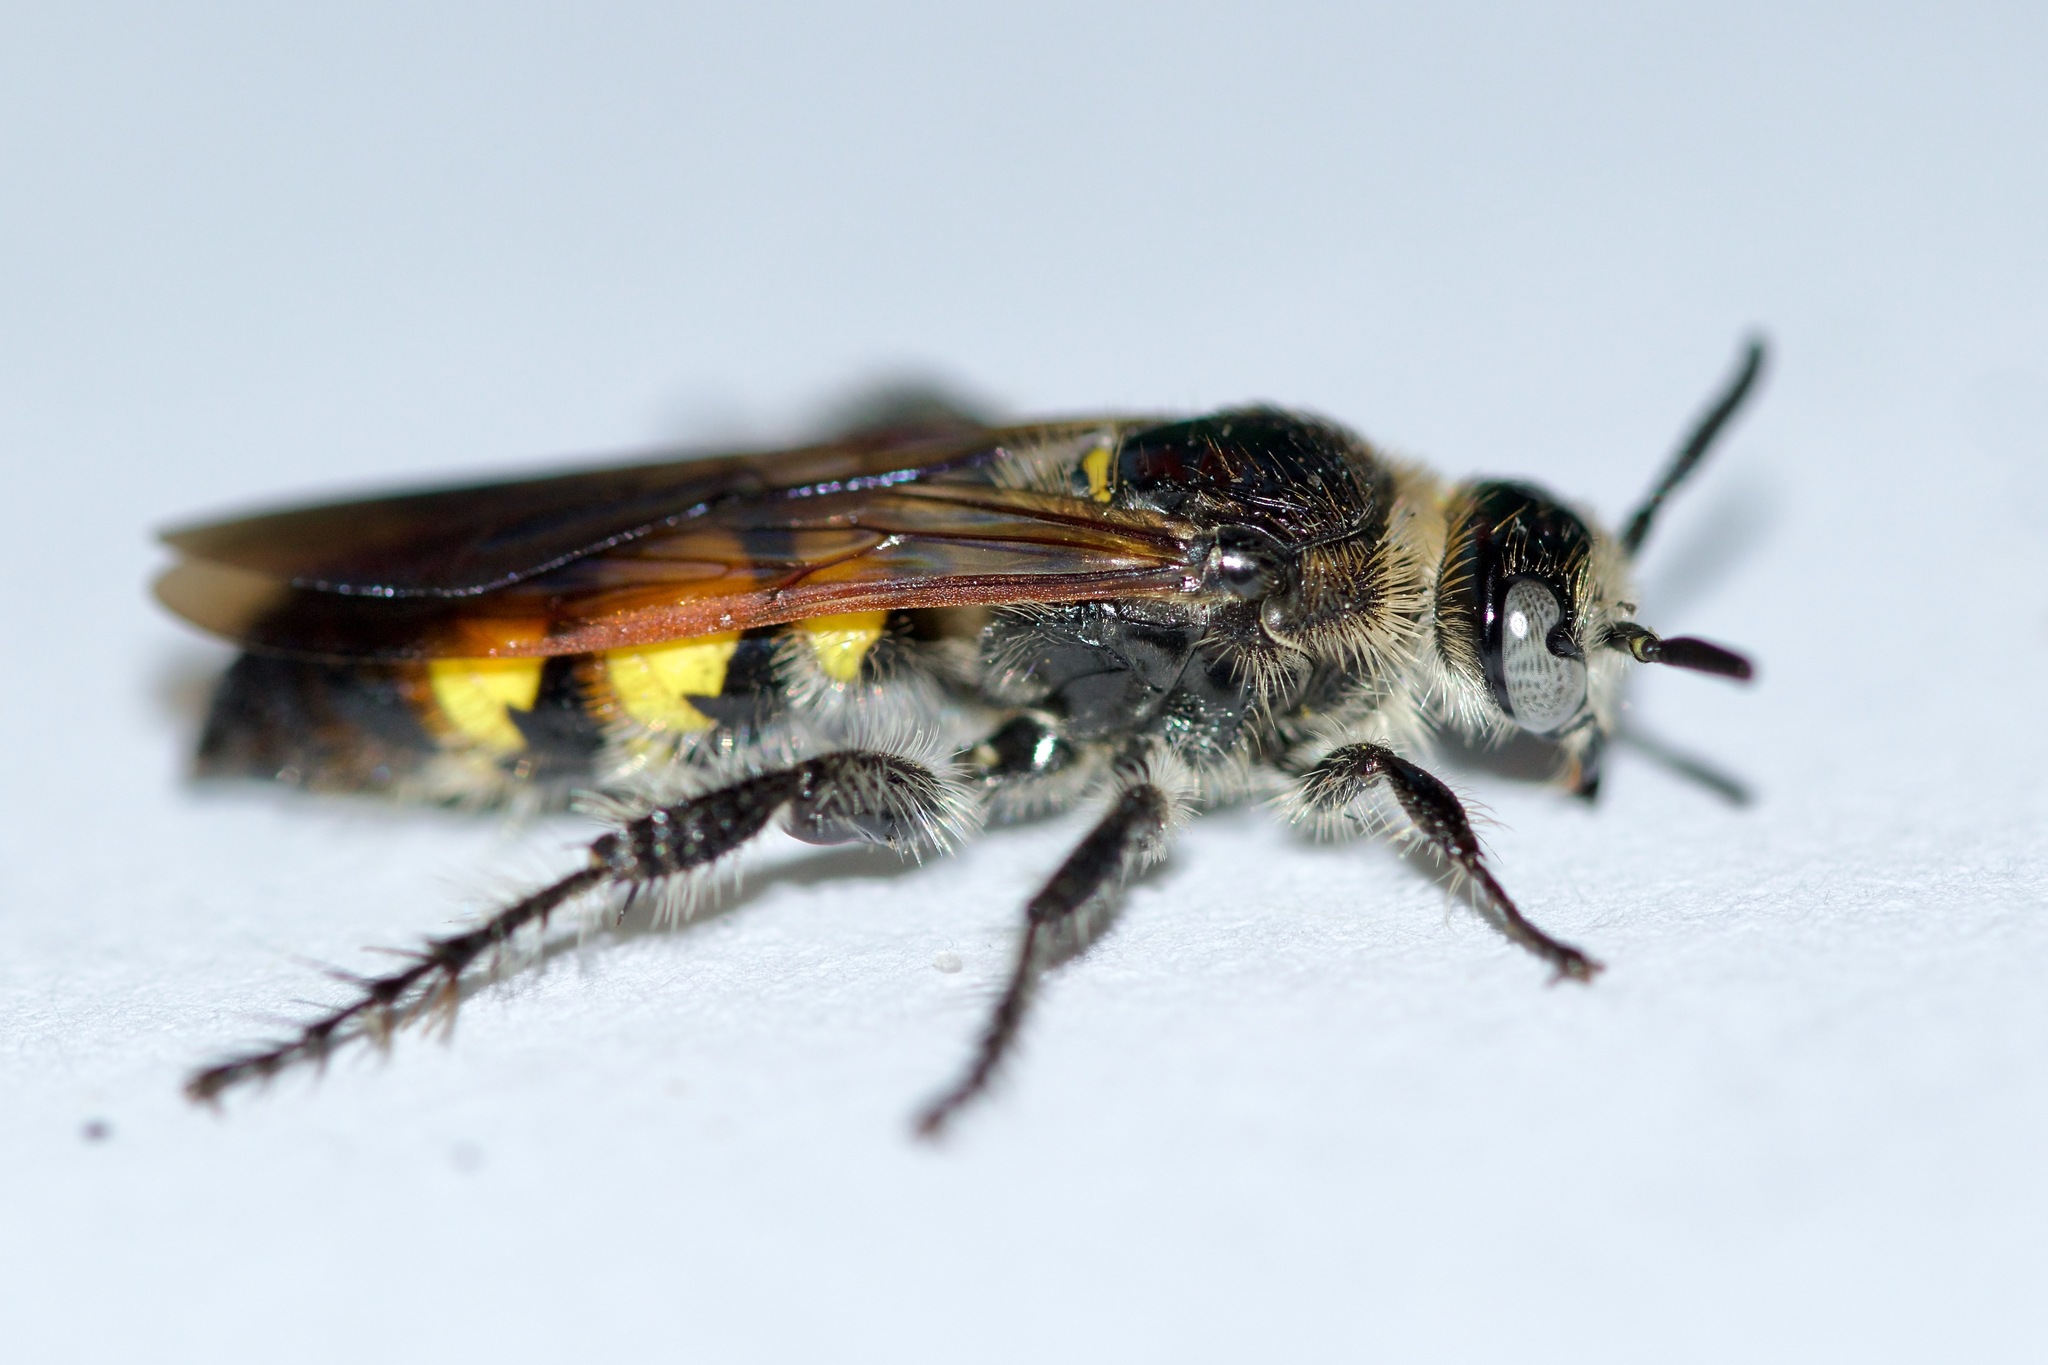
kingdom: Animalia
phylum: Arthropoda
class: Insecta
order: Hymenoptera
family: Scoliidae
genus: Dielis
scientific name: Dielis
